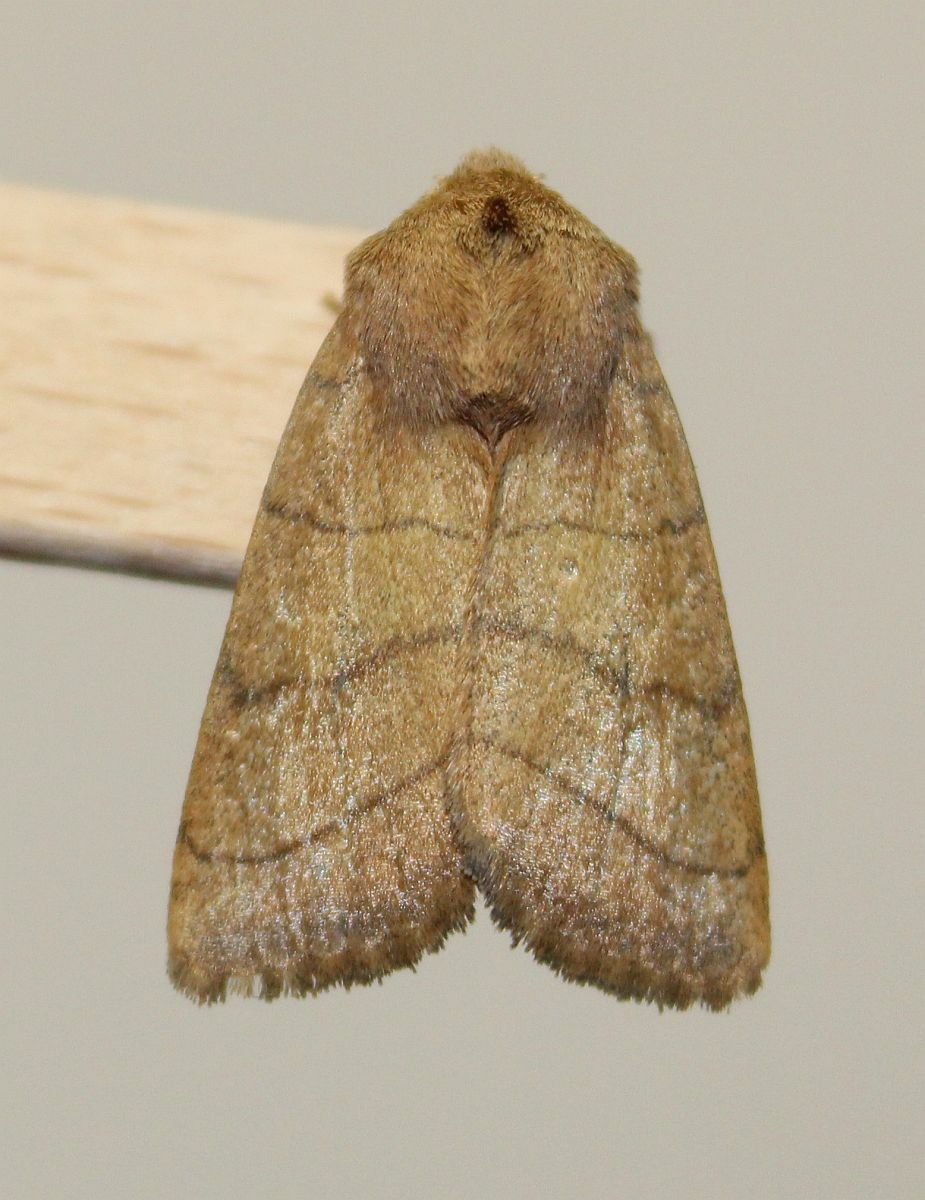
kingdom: Animalia
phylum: Arthropoda
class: Insecta
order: Lepidoptera
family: Noctuidae
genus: Charanyca
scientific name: Charanyca trigrammica
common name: Treble lines
